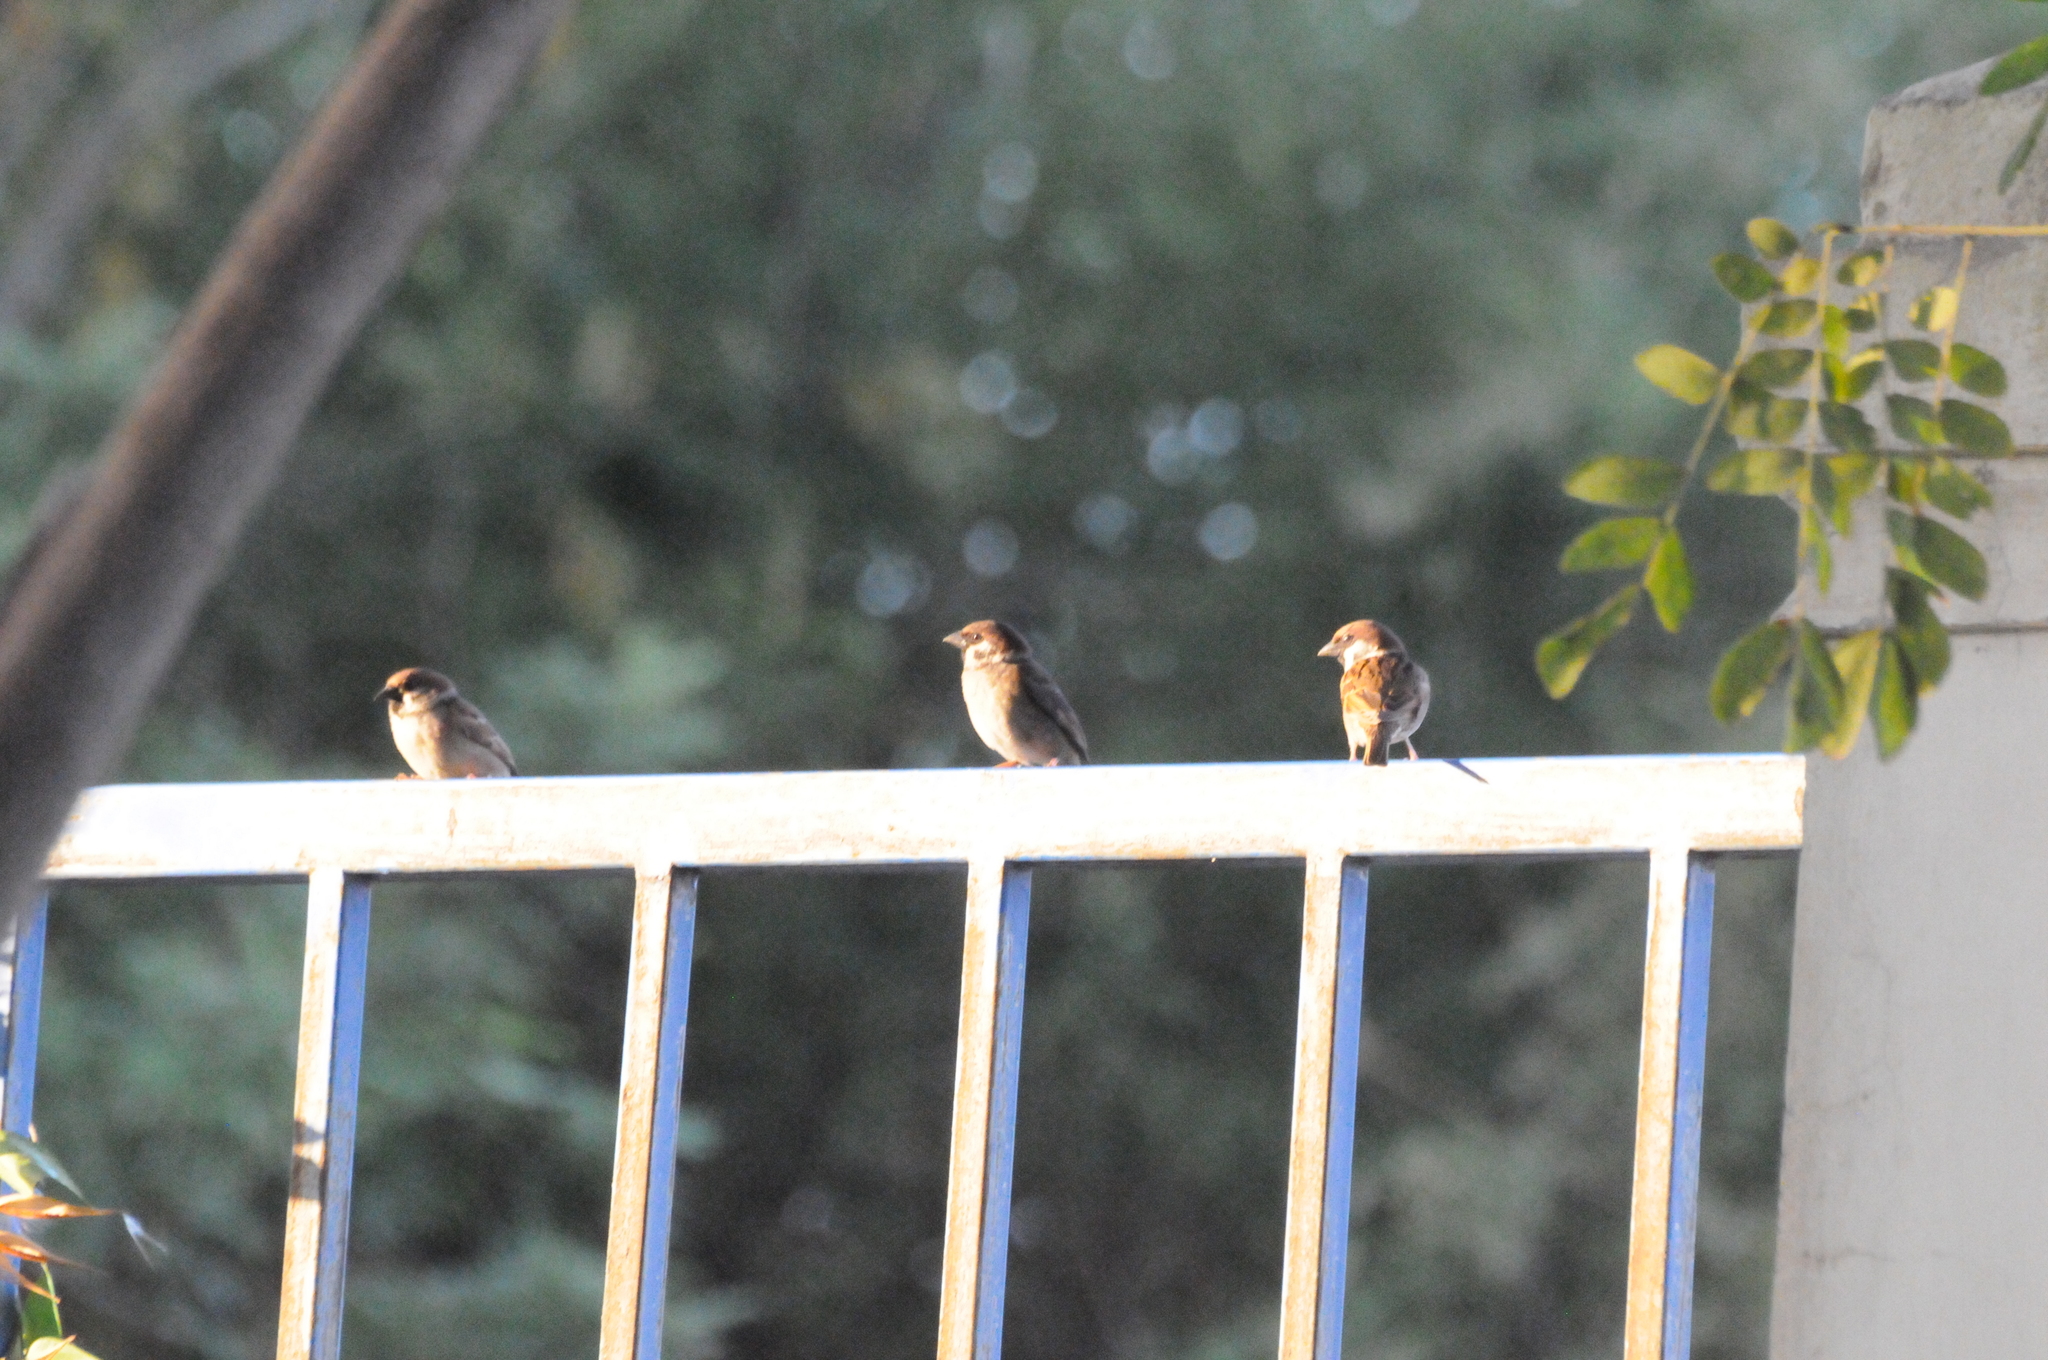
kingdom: Animalia
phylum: Chordata
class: Aves
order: Passeriformes
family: Passeridae
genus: Passer
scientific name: Passer montanus
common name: Eurasian tree sparrow
